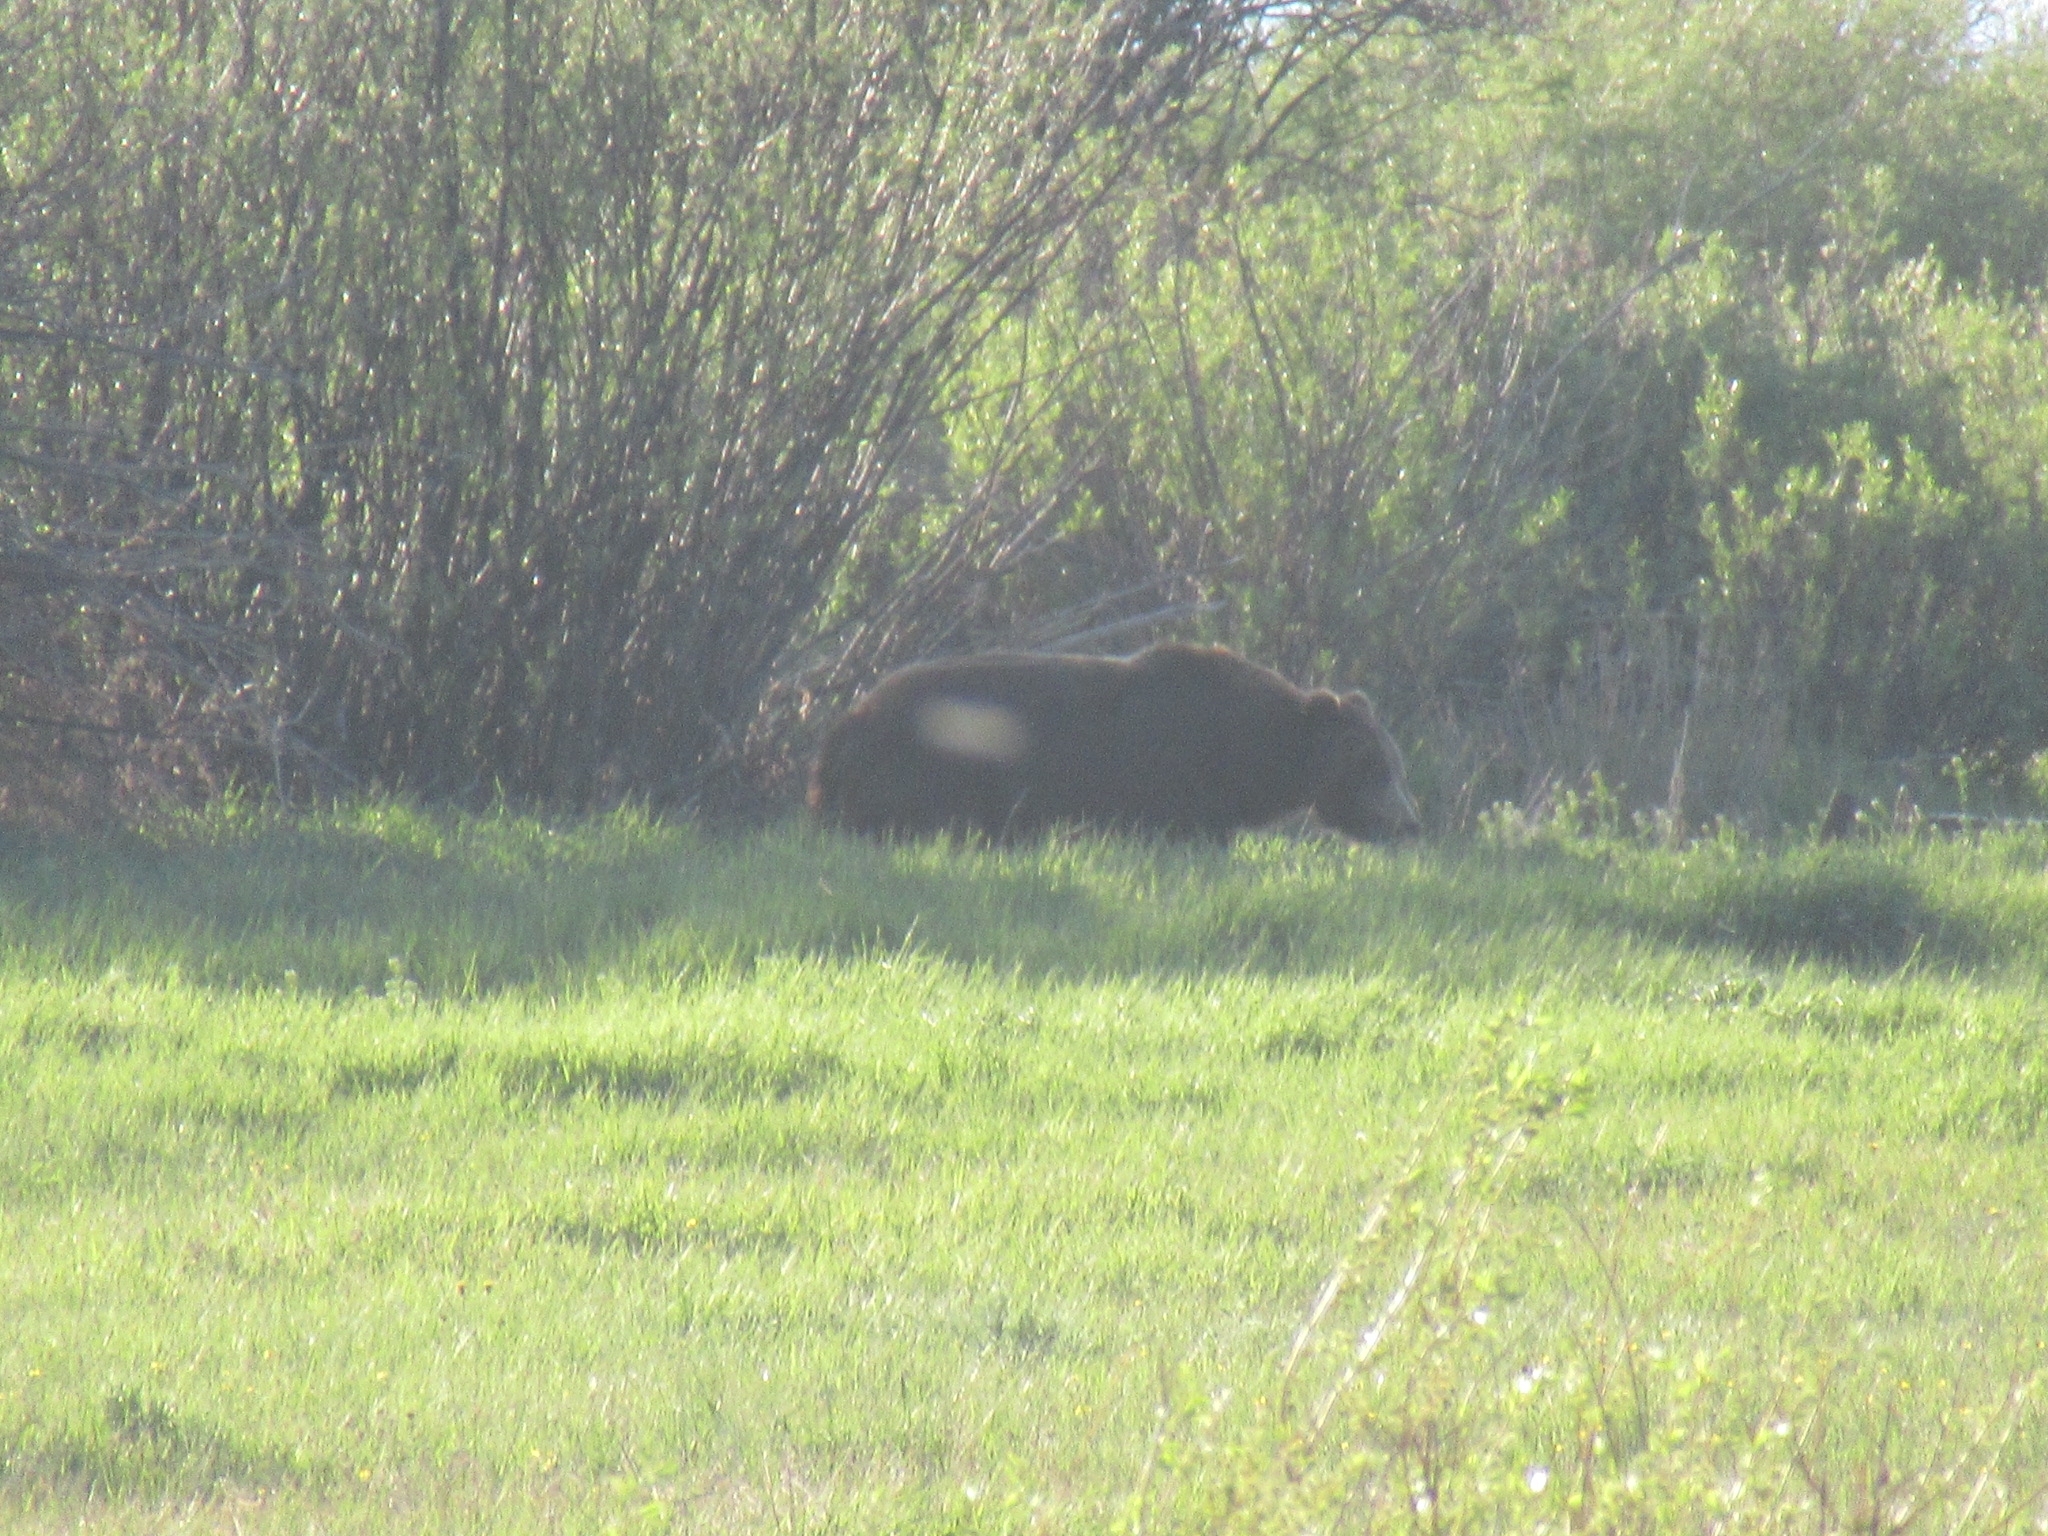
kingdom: Animalia
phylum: Chordata
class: Mammalia
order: Carnivora
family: Ursidae
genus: Ursus
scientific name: Ursus arctos
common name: Brown bear
